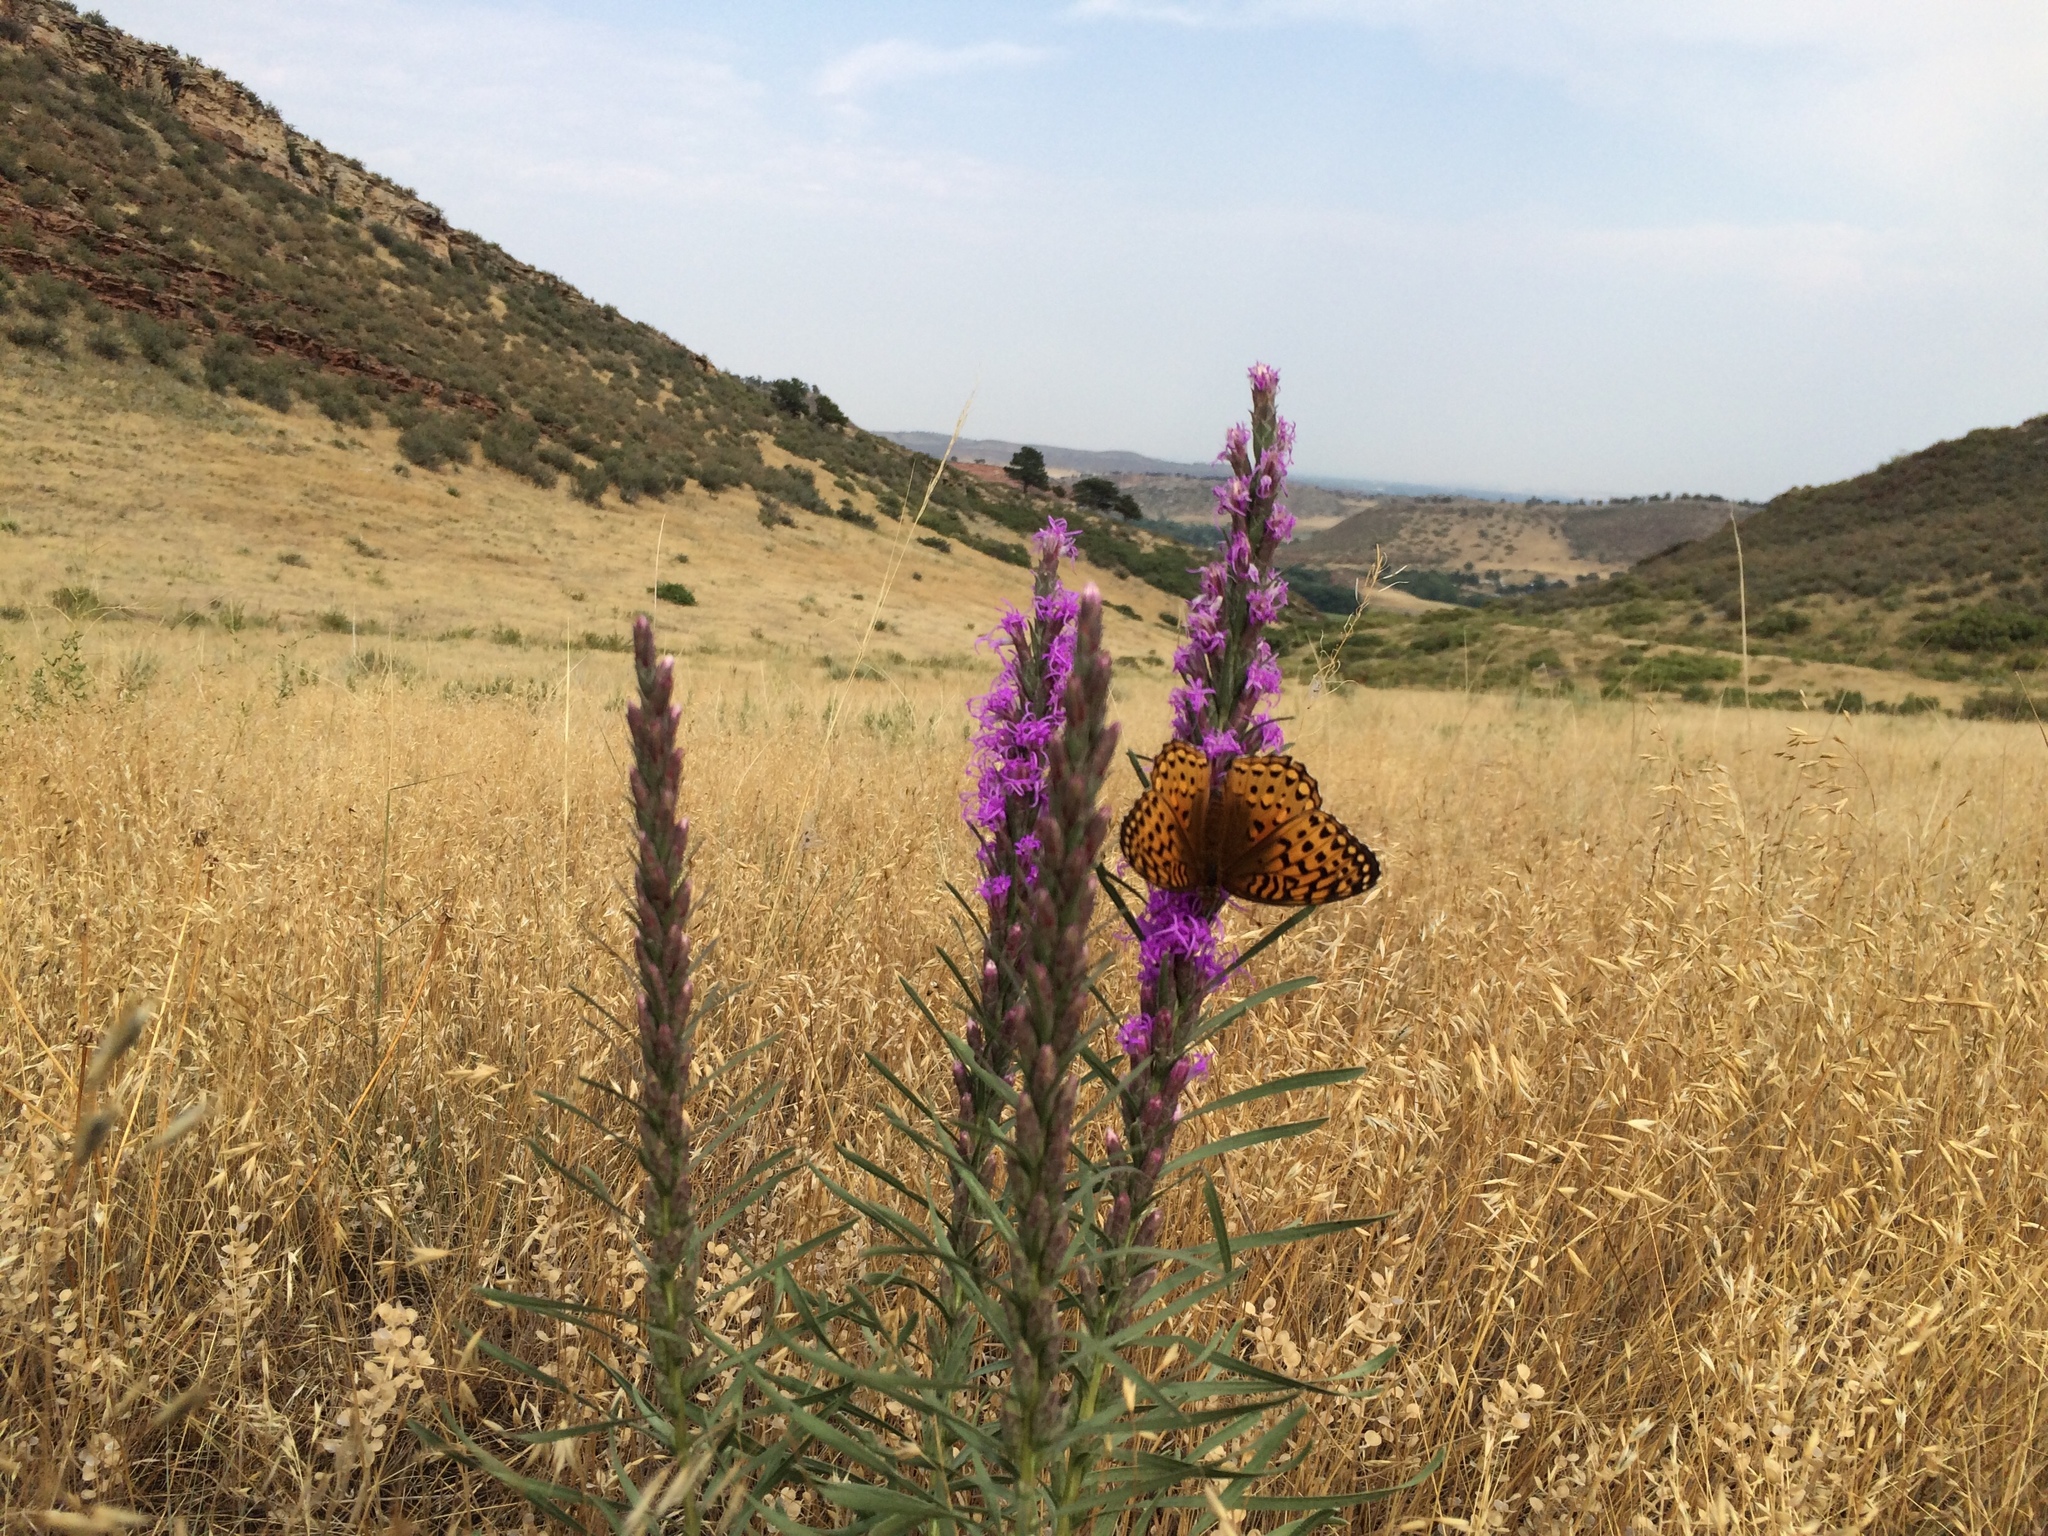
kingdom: Plantae
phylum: Tracheophyta
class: Magnoliopsida
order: Asterales
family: Asteraceae
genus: Liatris
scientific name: Liatris punctata
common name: Dotted gayfeather
